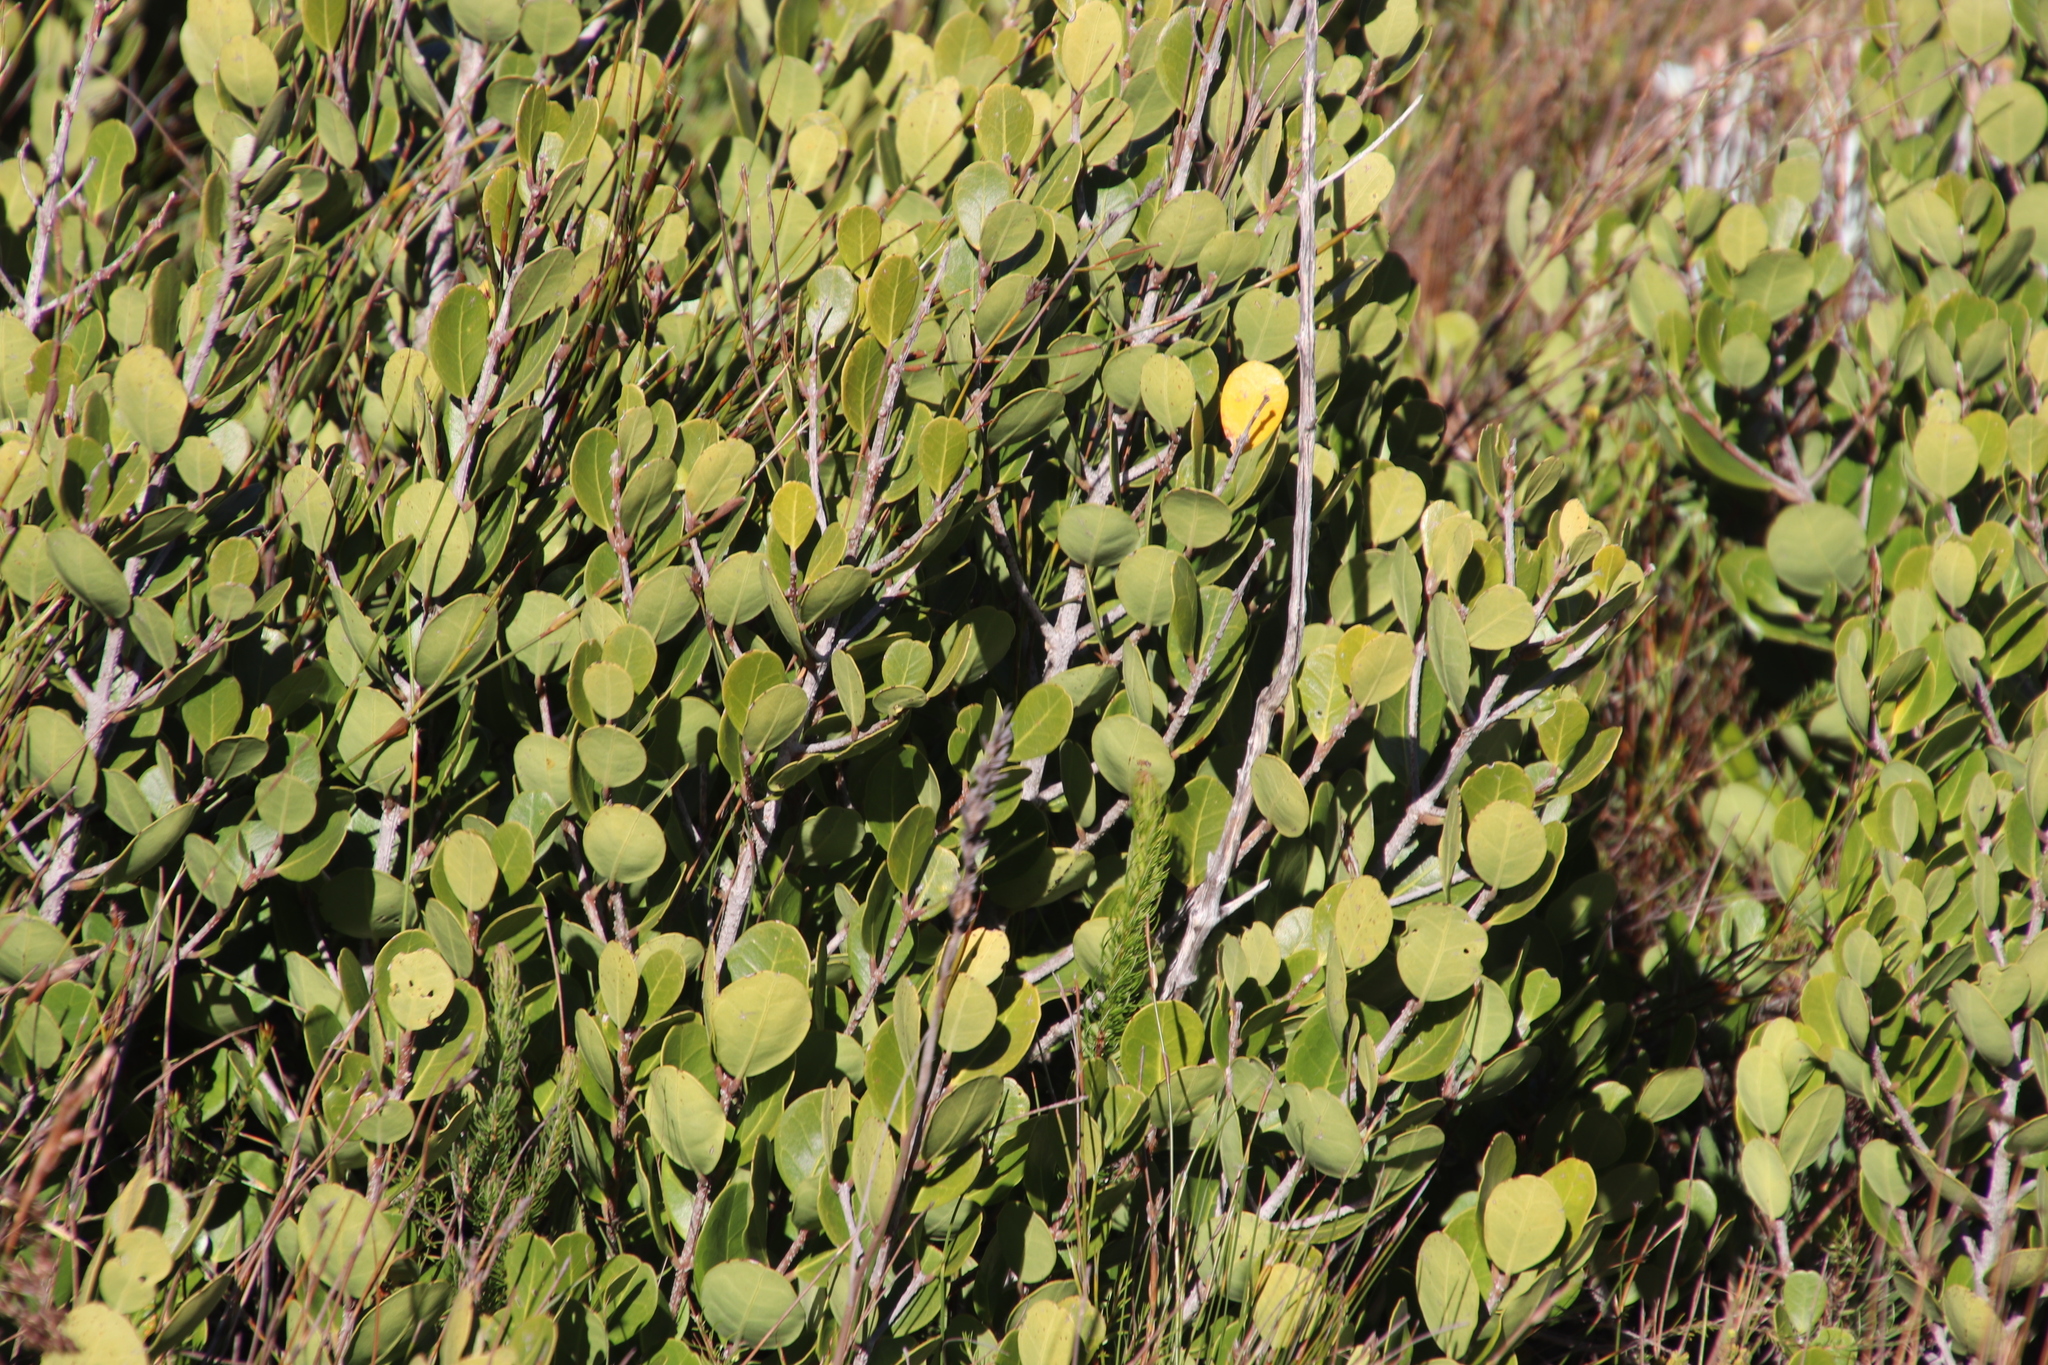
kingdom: Plantae
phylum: Tracheophyta
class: Magnoliopsida
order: Lamiales
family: Oleaceae
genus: Olea
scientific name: Olea capensis
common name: Black ironwood
